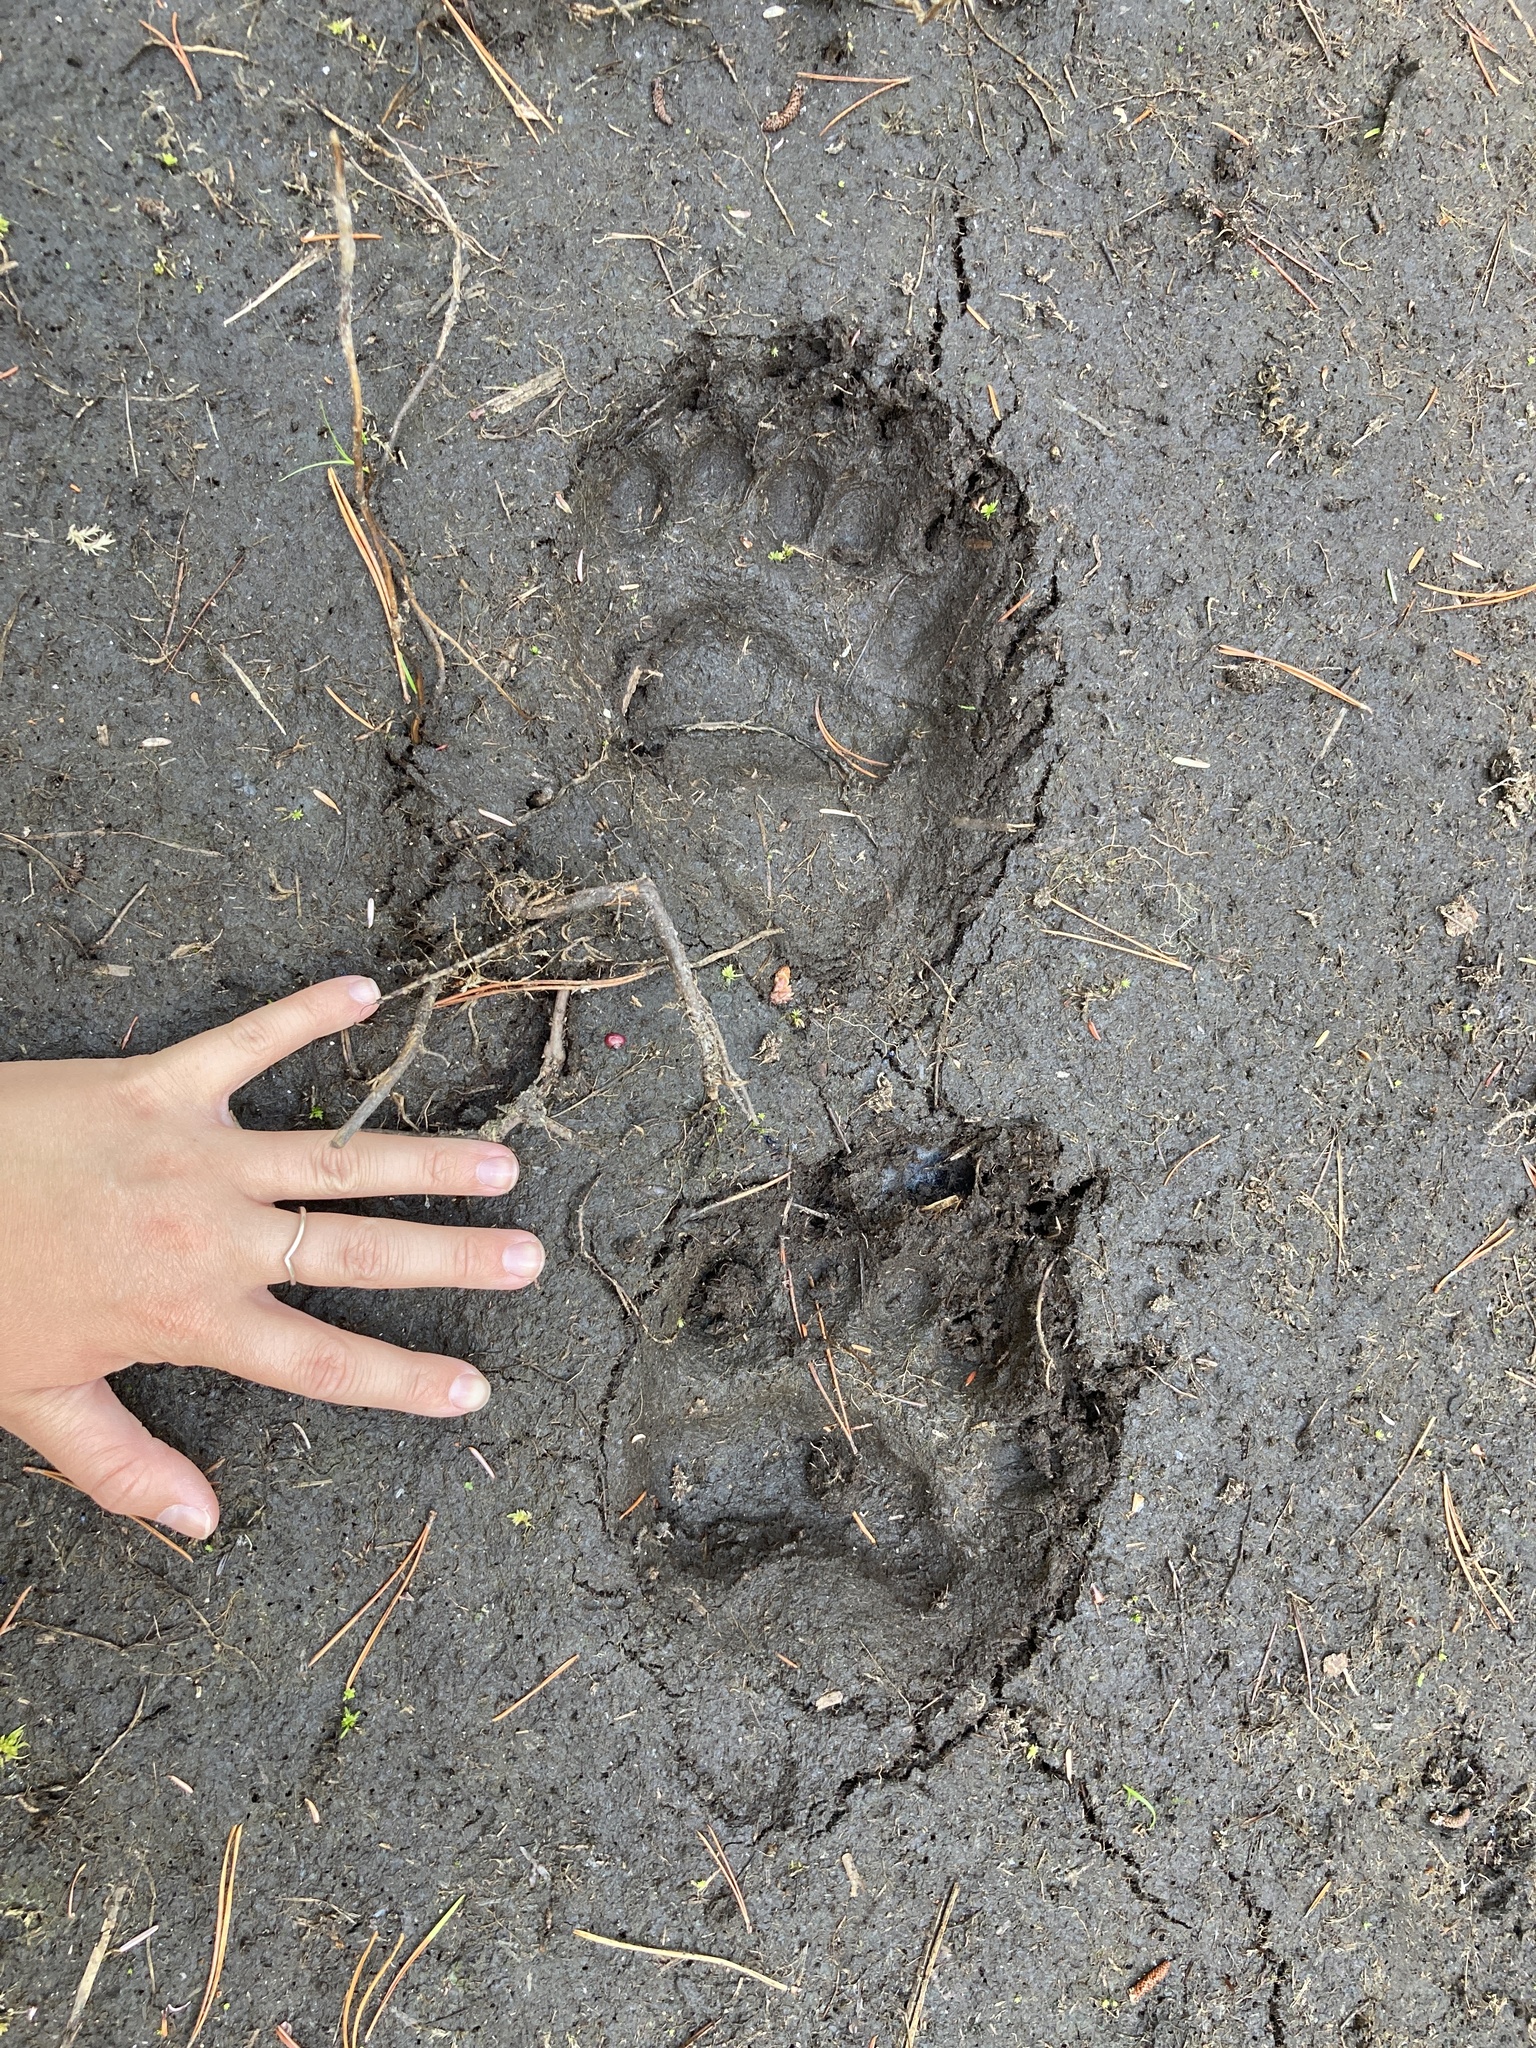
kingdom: Animalia
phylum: Chordata
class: Mammalia
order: Carnivora
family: Ursidae
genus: Ursus
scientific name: Ursus americanus
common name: American black bear
